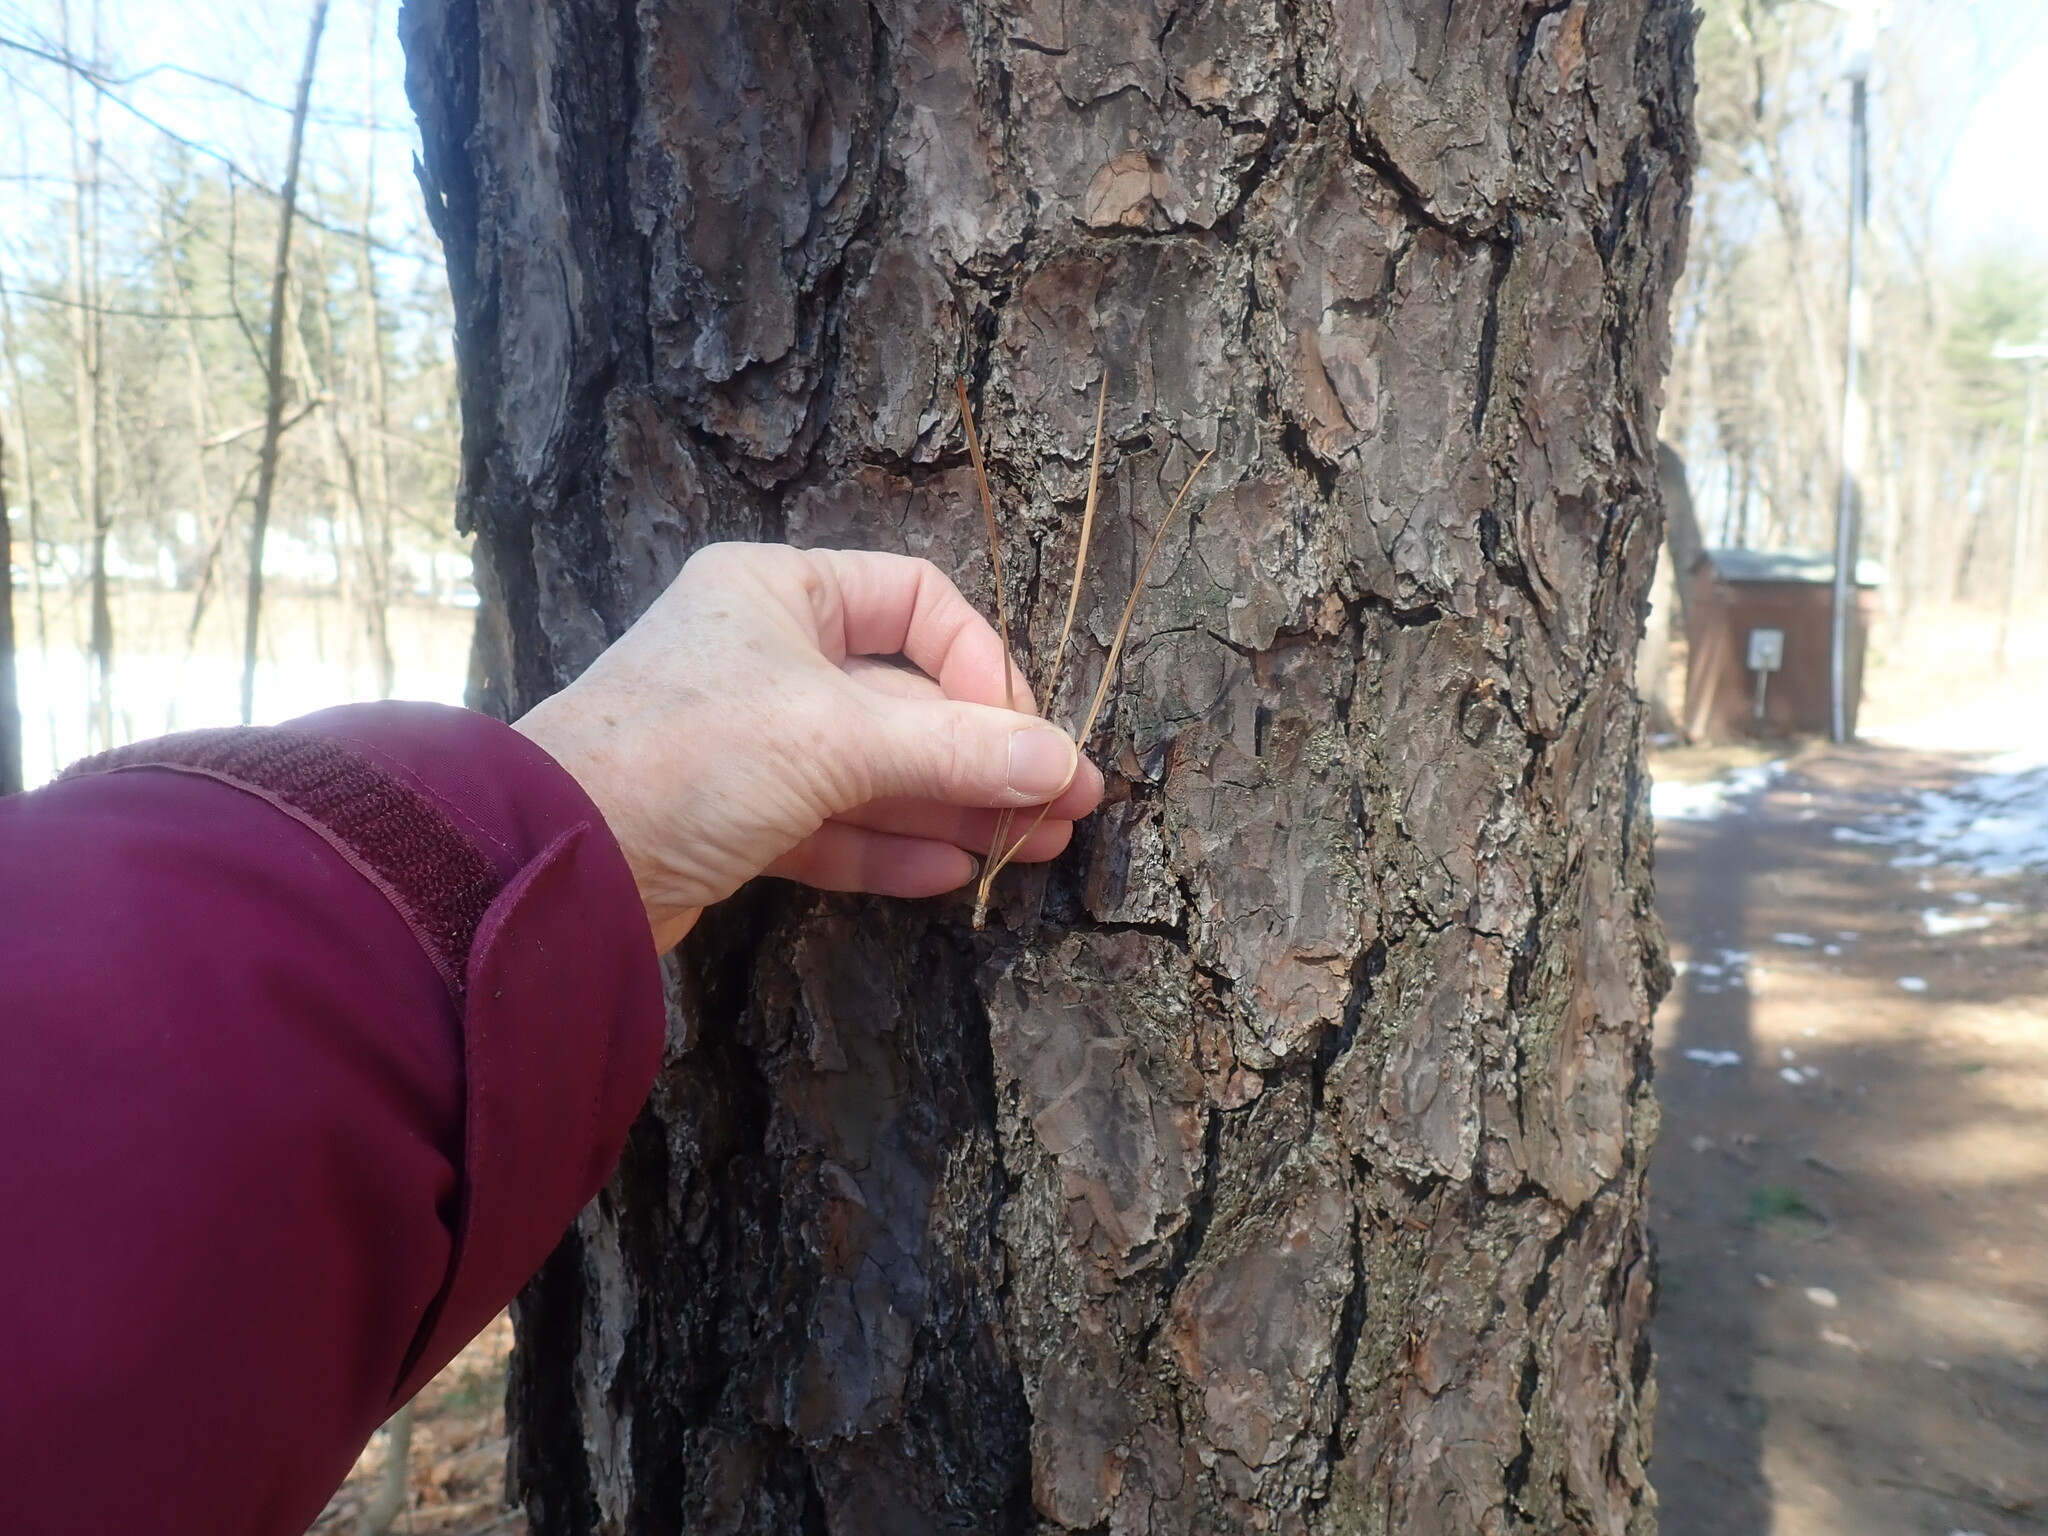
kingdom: Plantae
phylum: Tracheophyta
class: Pinopsida
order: Pinales
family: Pinaceae
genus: Pinus
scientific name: Pinus rigida
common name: Pitch pine
